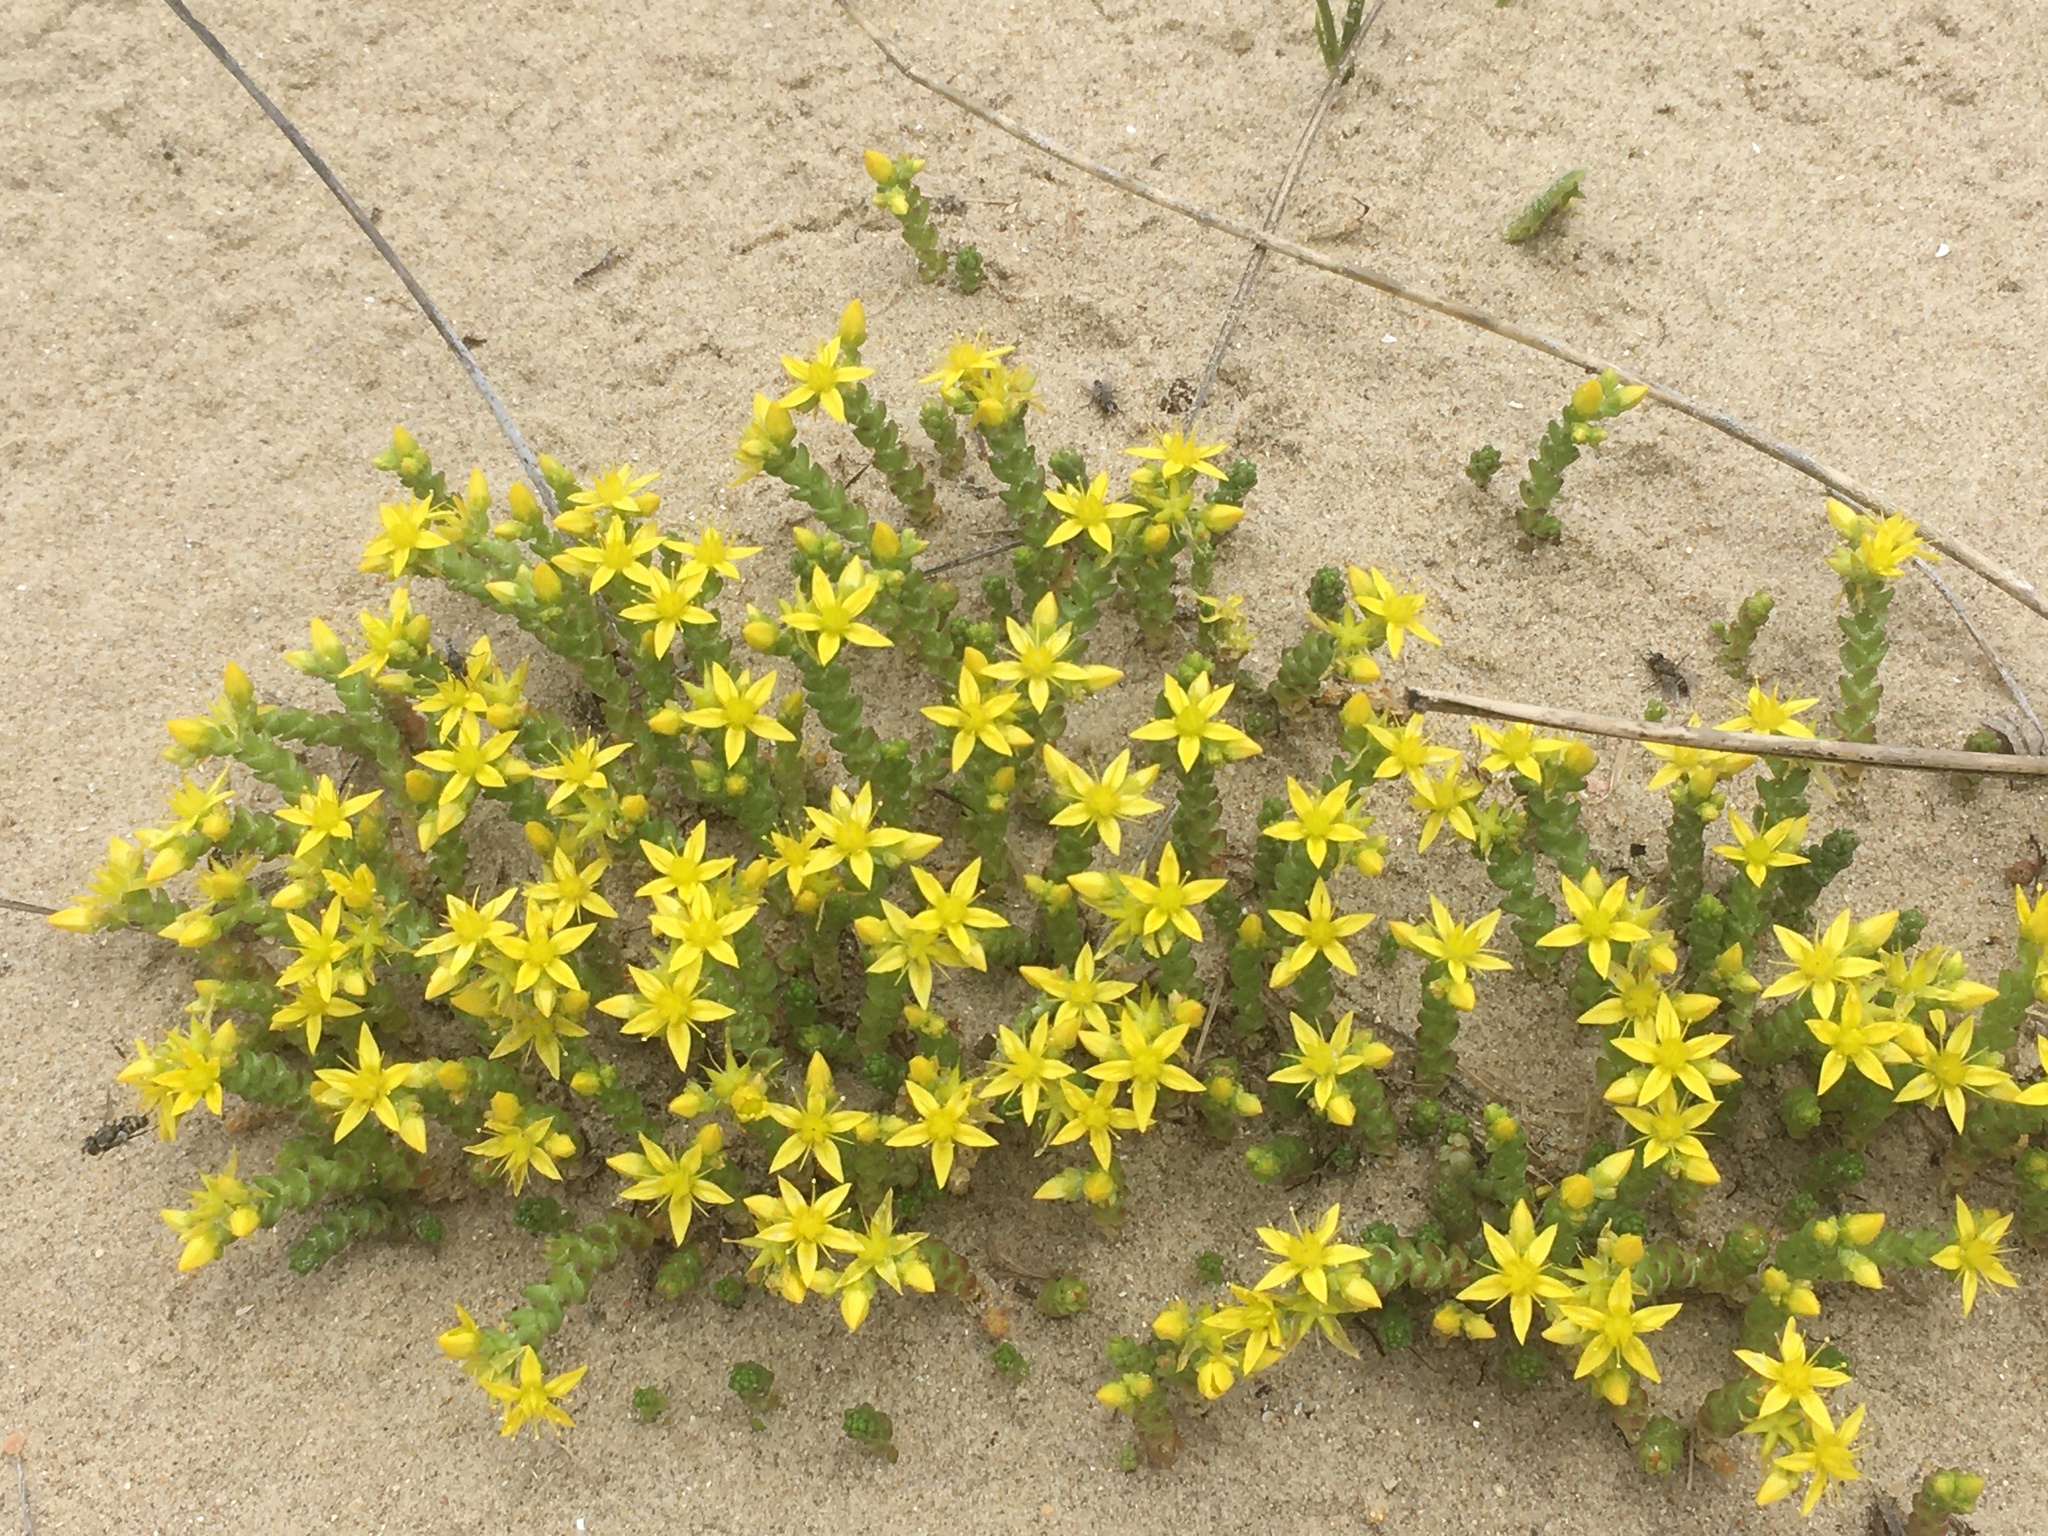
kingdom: Plantae
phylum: Tracheophyta
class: Magnoliopsida
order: Saxifragales
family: Crassulaceae
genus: Sedum
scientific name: Sedum acre
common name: Biting stonecrop
